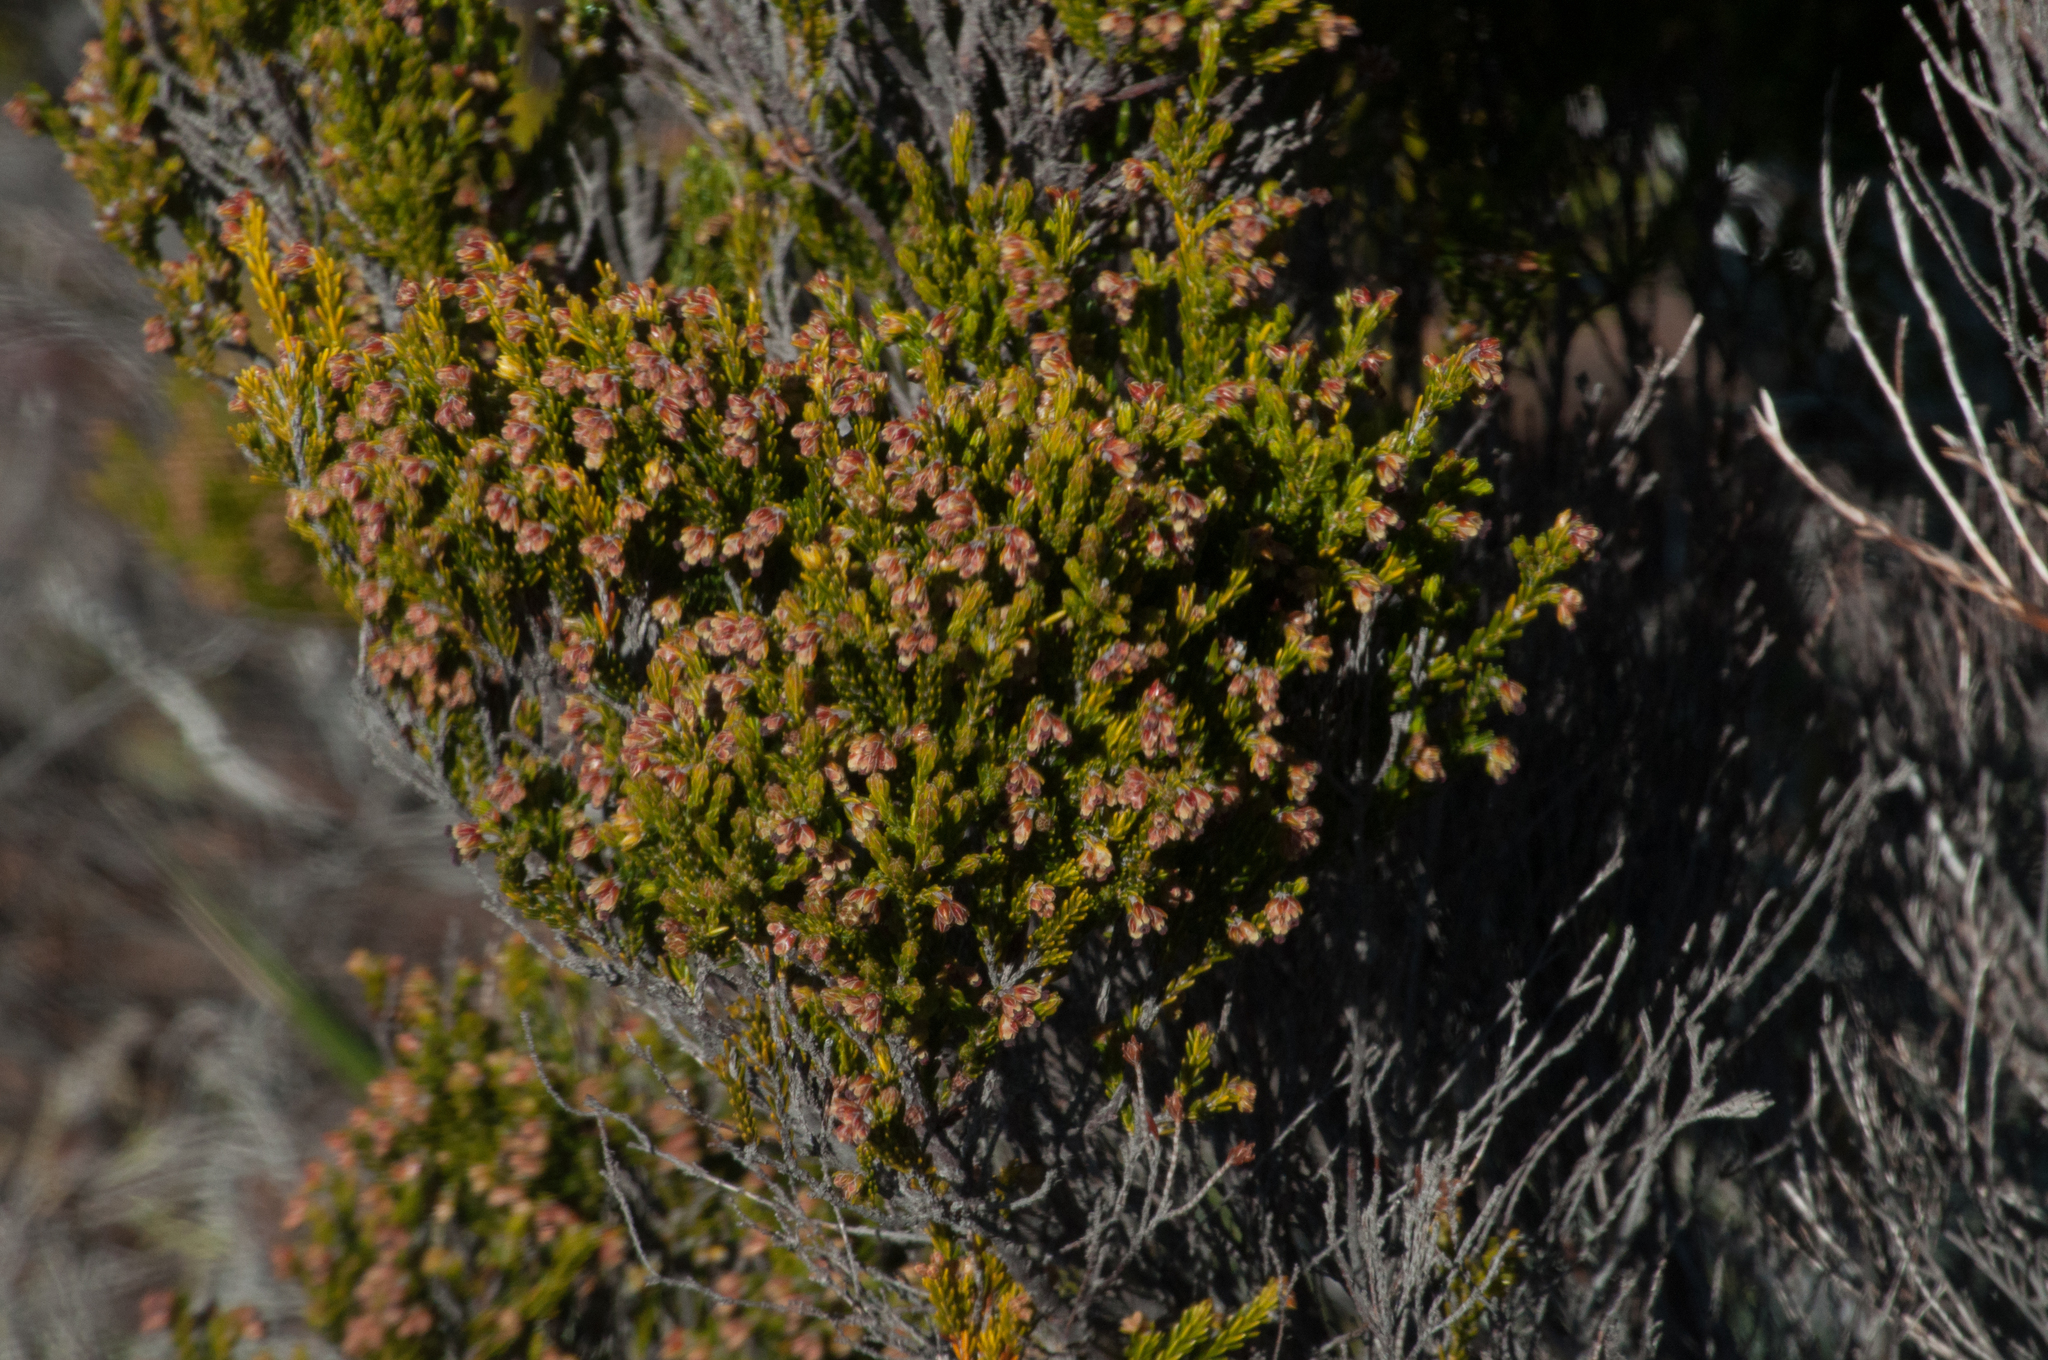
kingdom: Plantae
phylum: Tracheophyta
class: Magnoliopsida
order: Ericales
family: Ericaceae
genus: Erica
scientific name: Erica reunionensis
